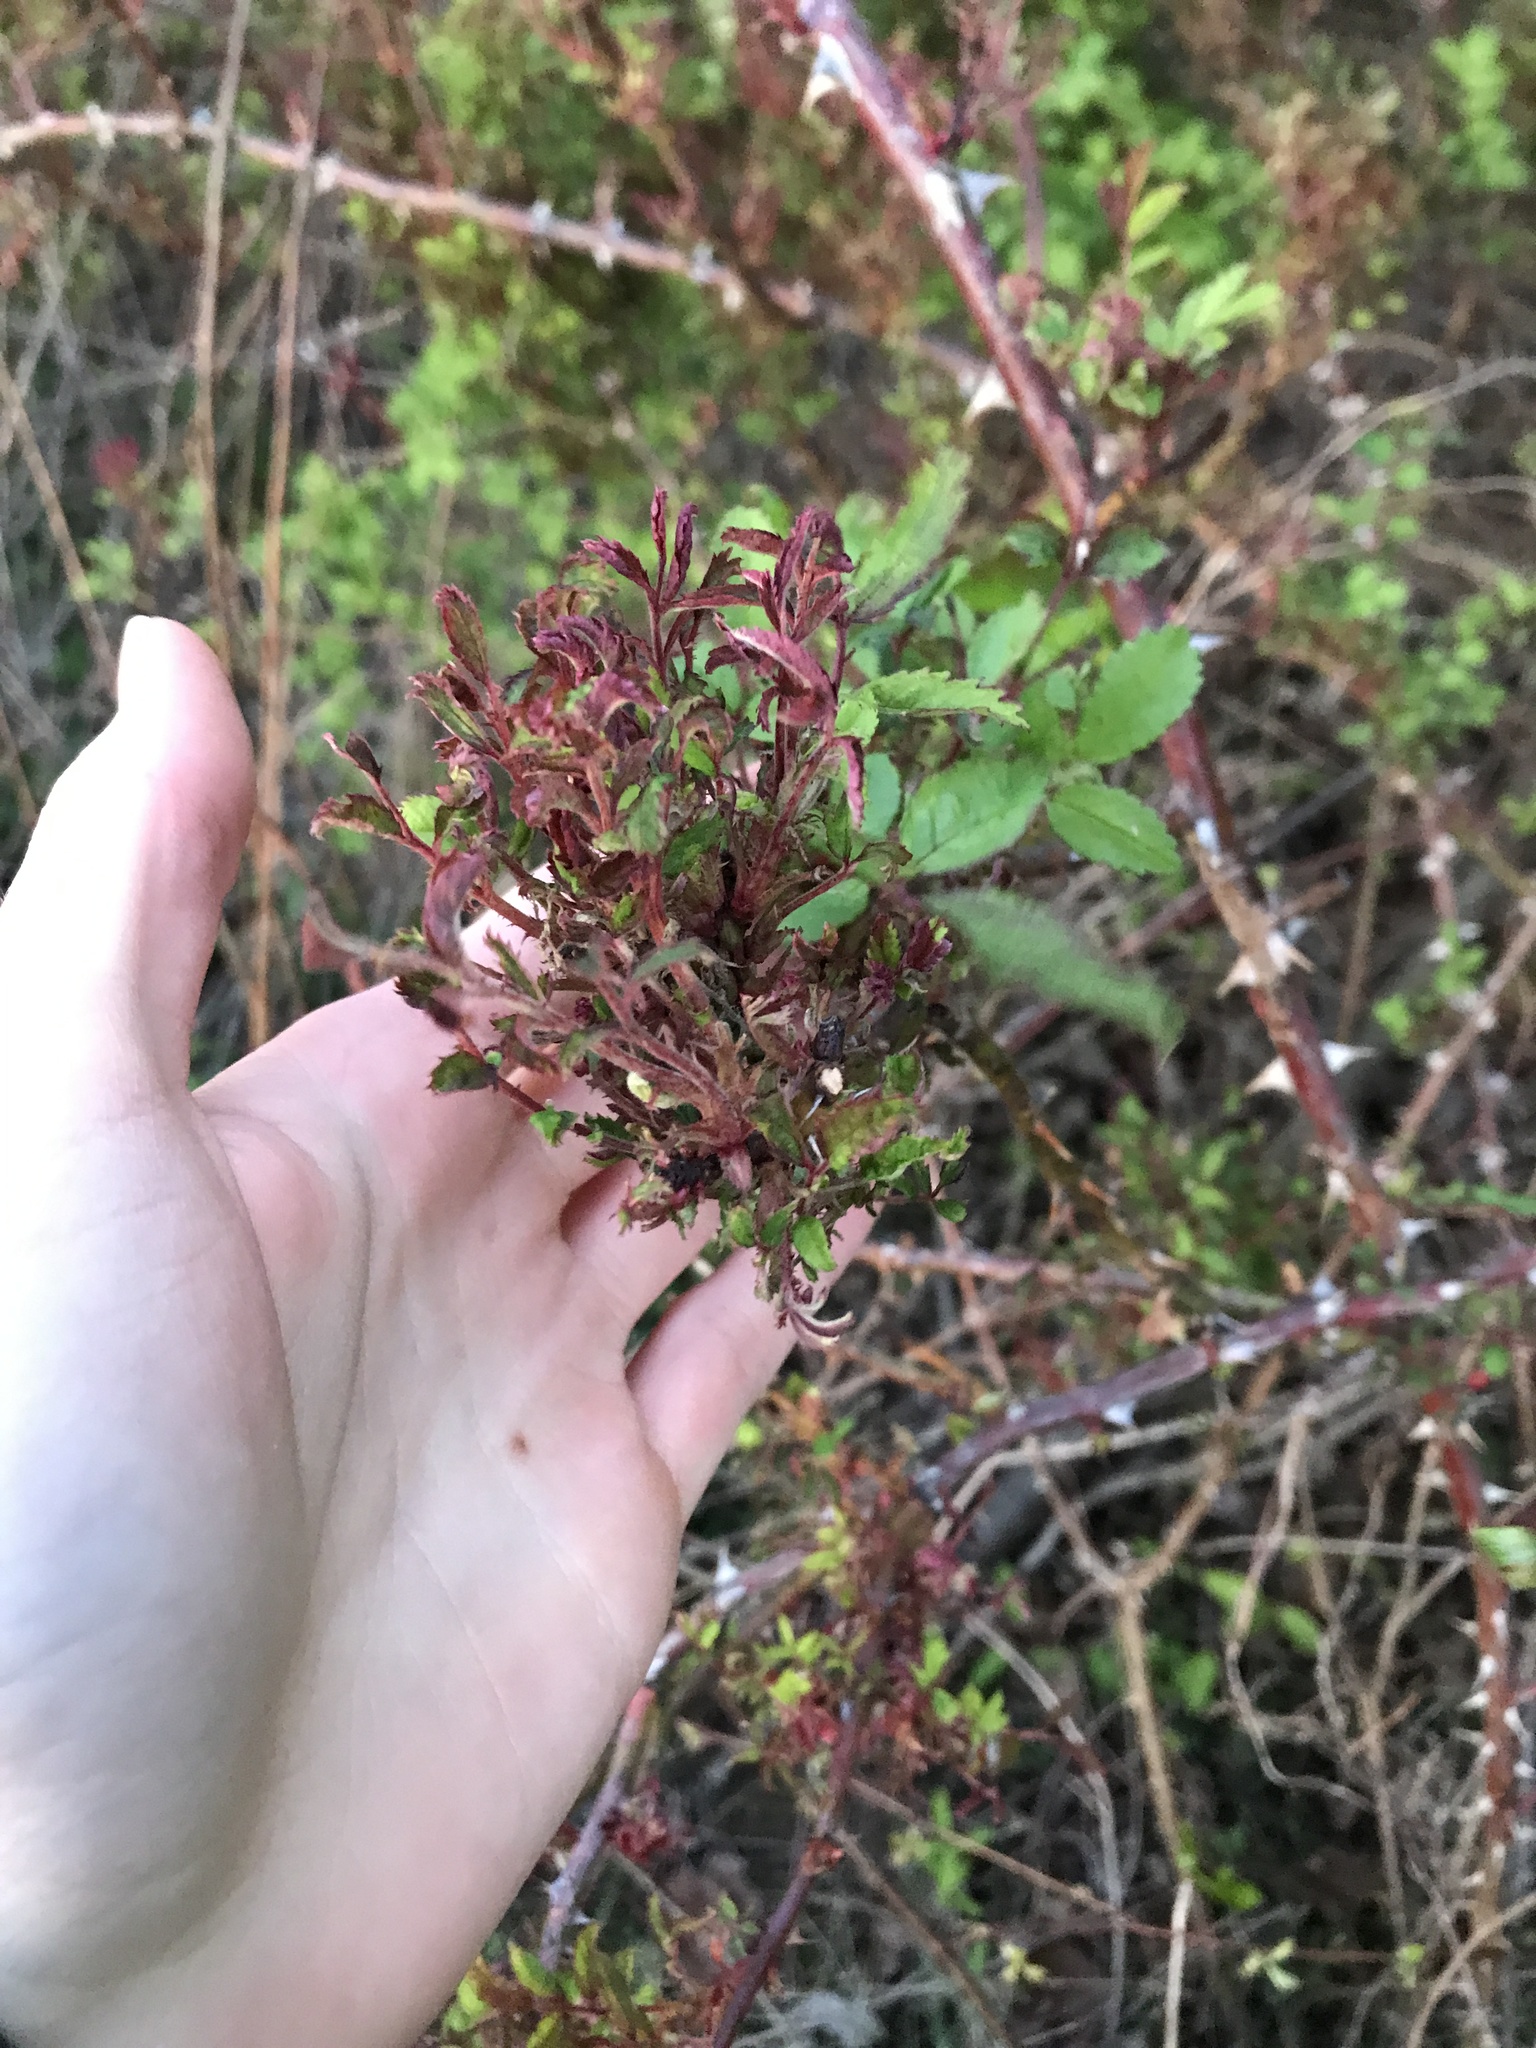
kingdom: Plantae
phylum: Tracheophyta
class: Magnoliopsida
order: Rosales
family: Rosaceae
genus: Rosa
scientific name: Rosa multiflora
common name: Multiflora rose
